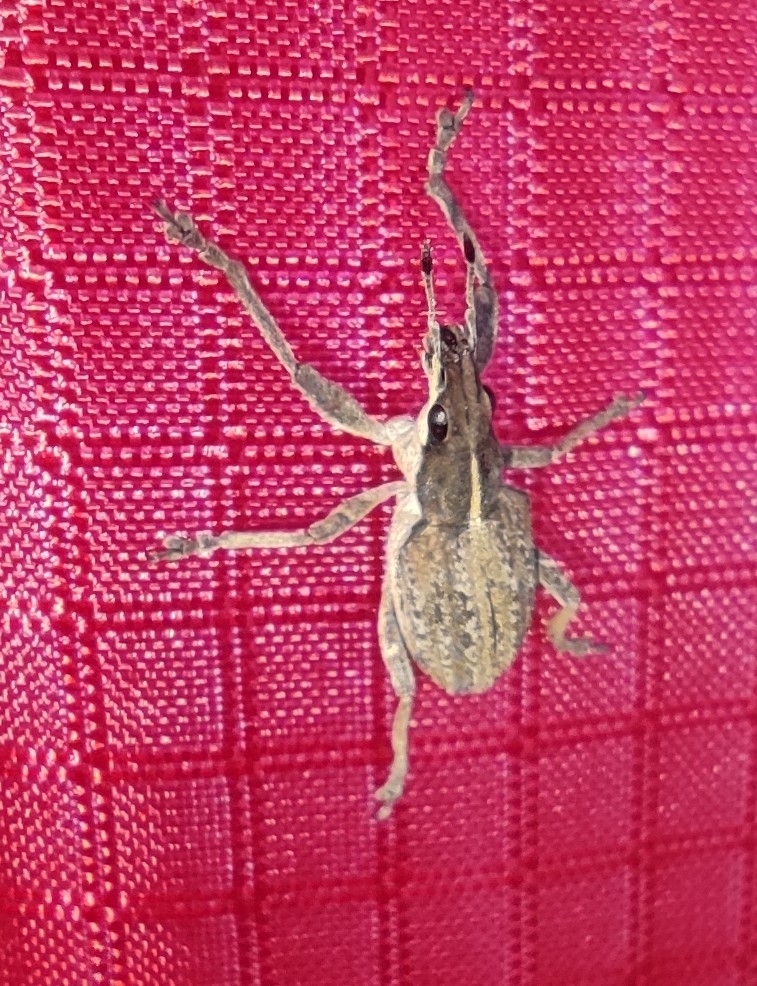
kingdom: Animalia
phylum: Arthropoda
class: Insecta
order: Coleoptera
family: Curculionidae
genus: Charagmus
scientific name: Charagmus gressorius
